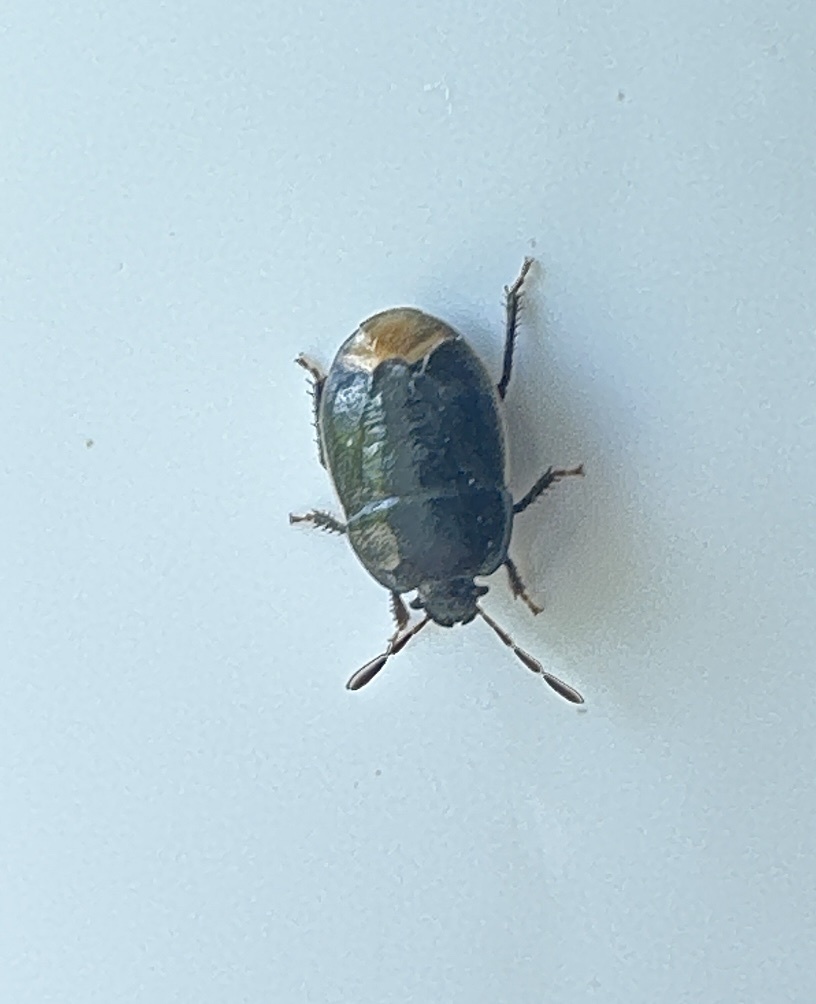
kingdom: Animalia
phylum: Arthropoda
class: Insecta
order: Hemiptera
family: Cydnidae
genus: Legnotus
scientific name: Legnotus limbosus
